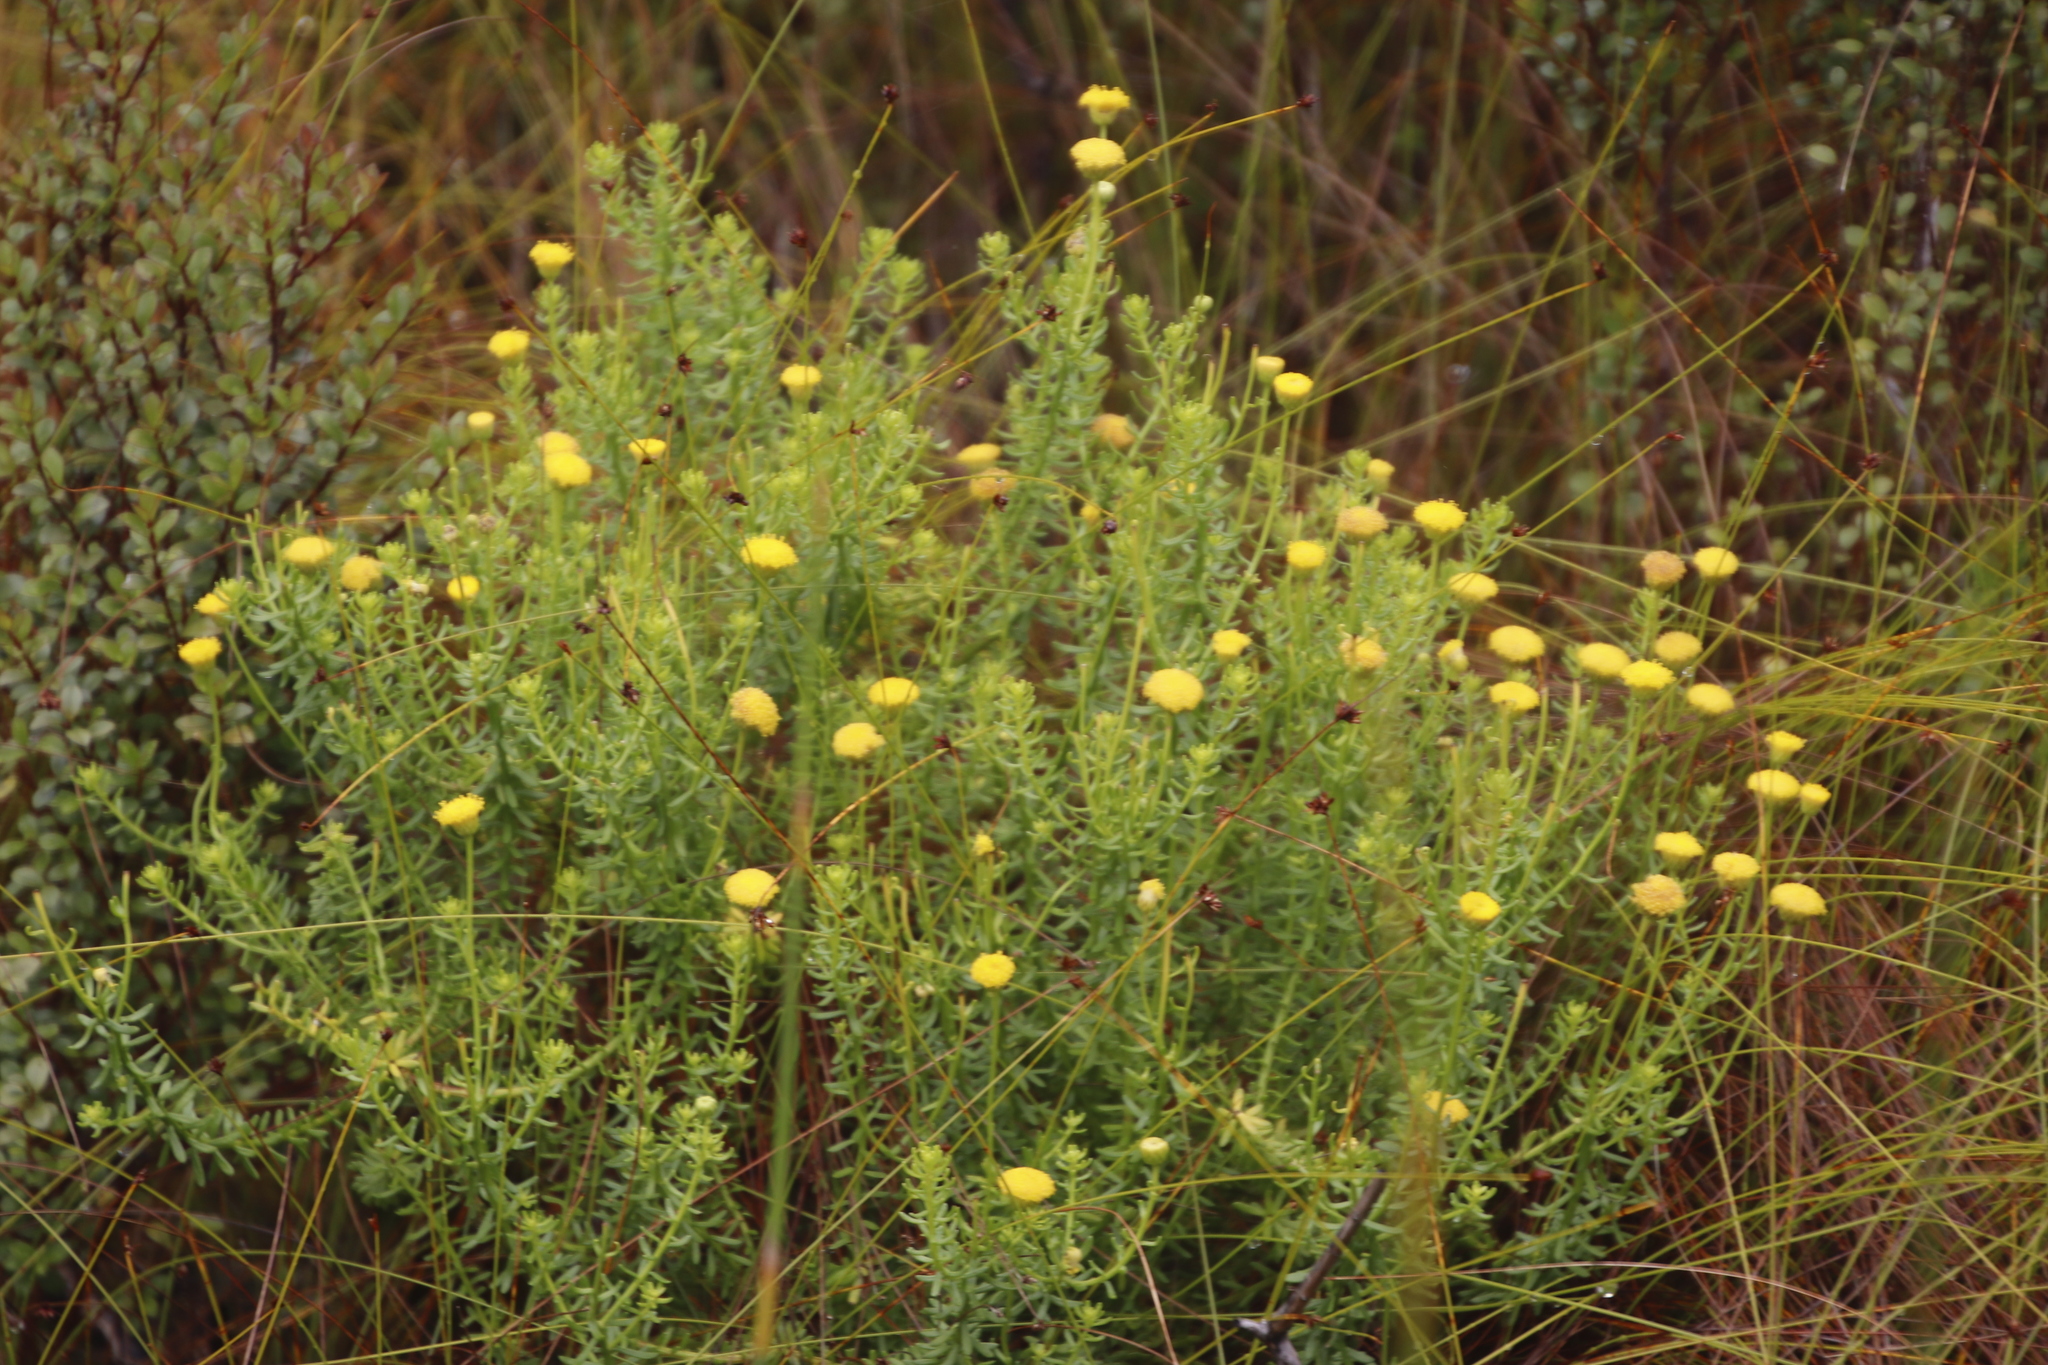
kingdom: Plantae
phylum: Tracheophyta
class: Magnoliopsida
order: Asterales
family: Asteraceae
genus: Chrysocoma
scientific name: Chrysocoma cernua
